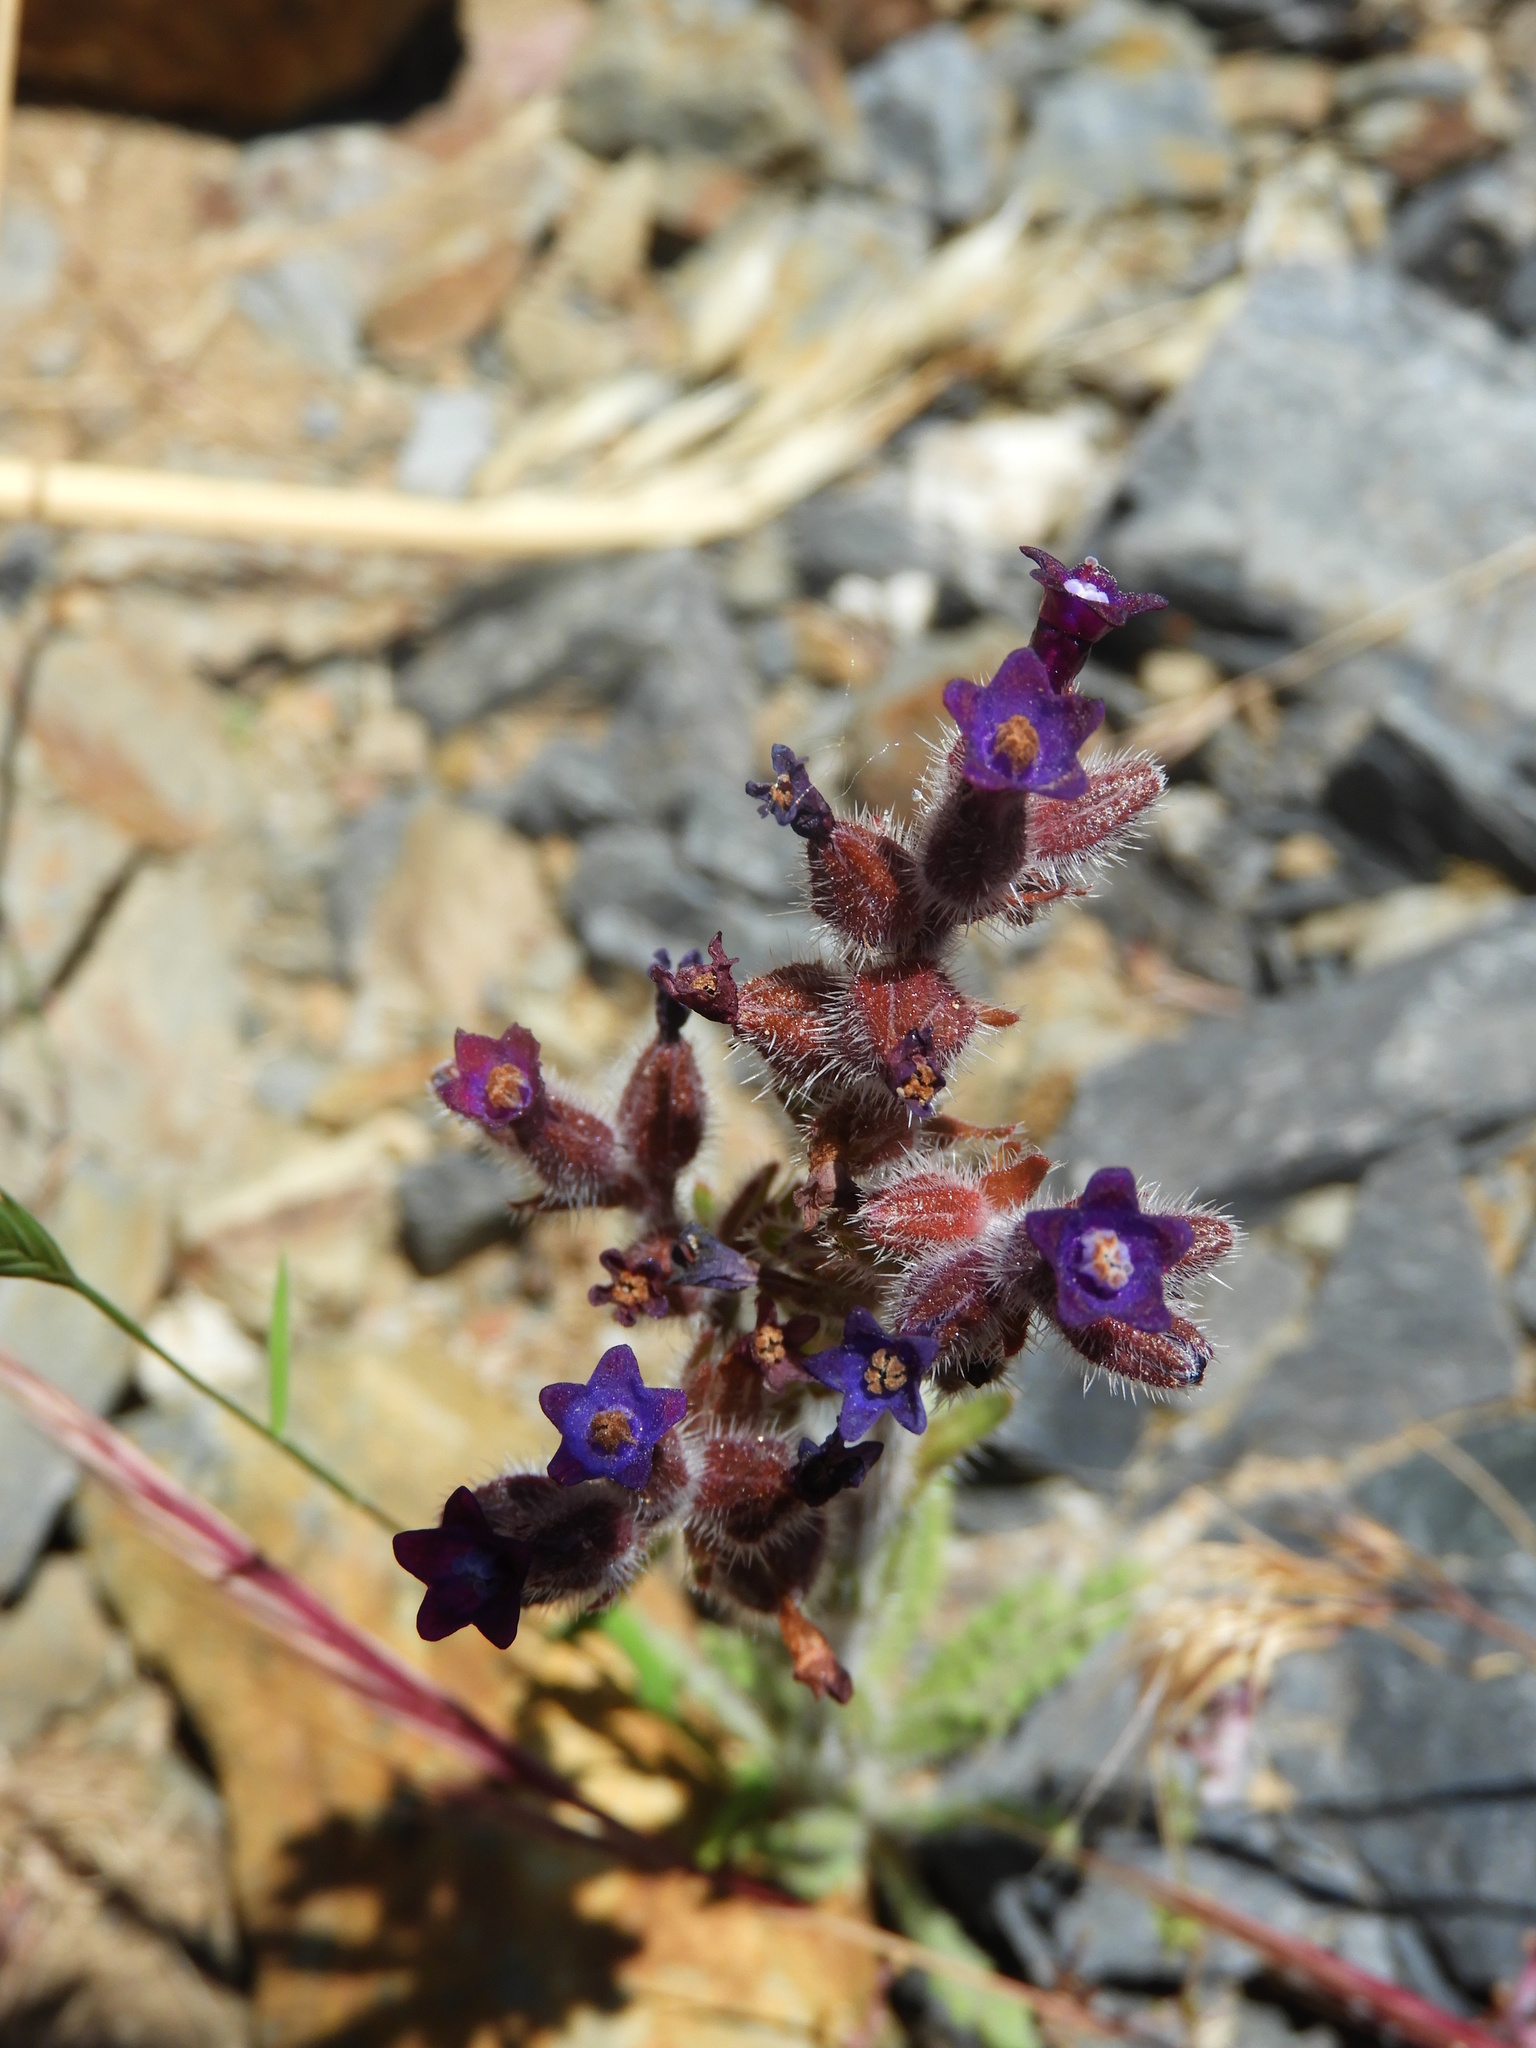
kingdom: Plantae
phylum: Tracheophyta
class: Magnoliopsida
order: Boraginales
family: Boraginaceae
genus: Anchusa
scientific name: Anchusa undulata
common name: Undulate alkanet
